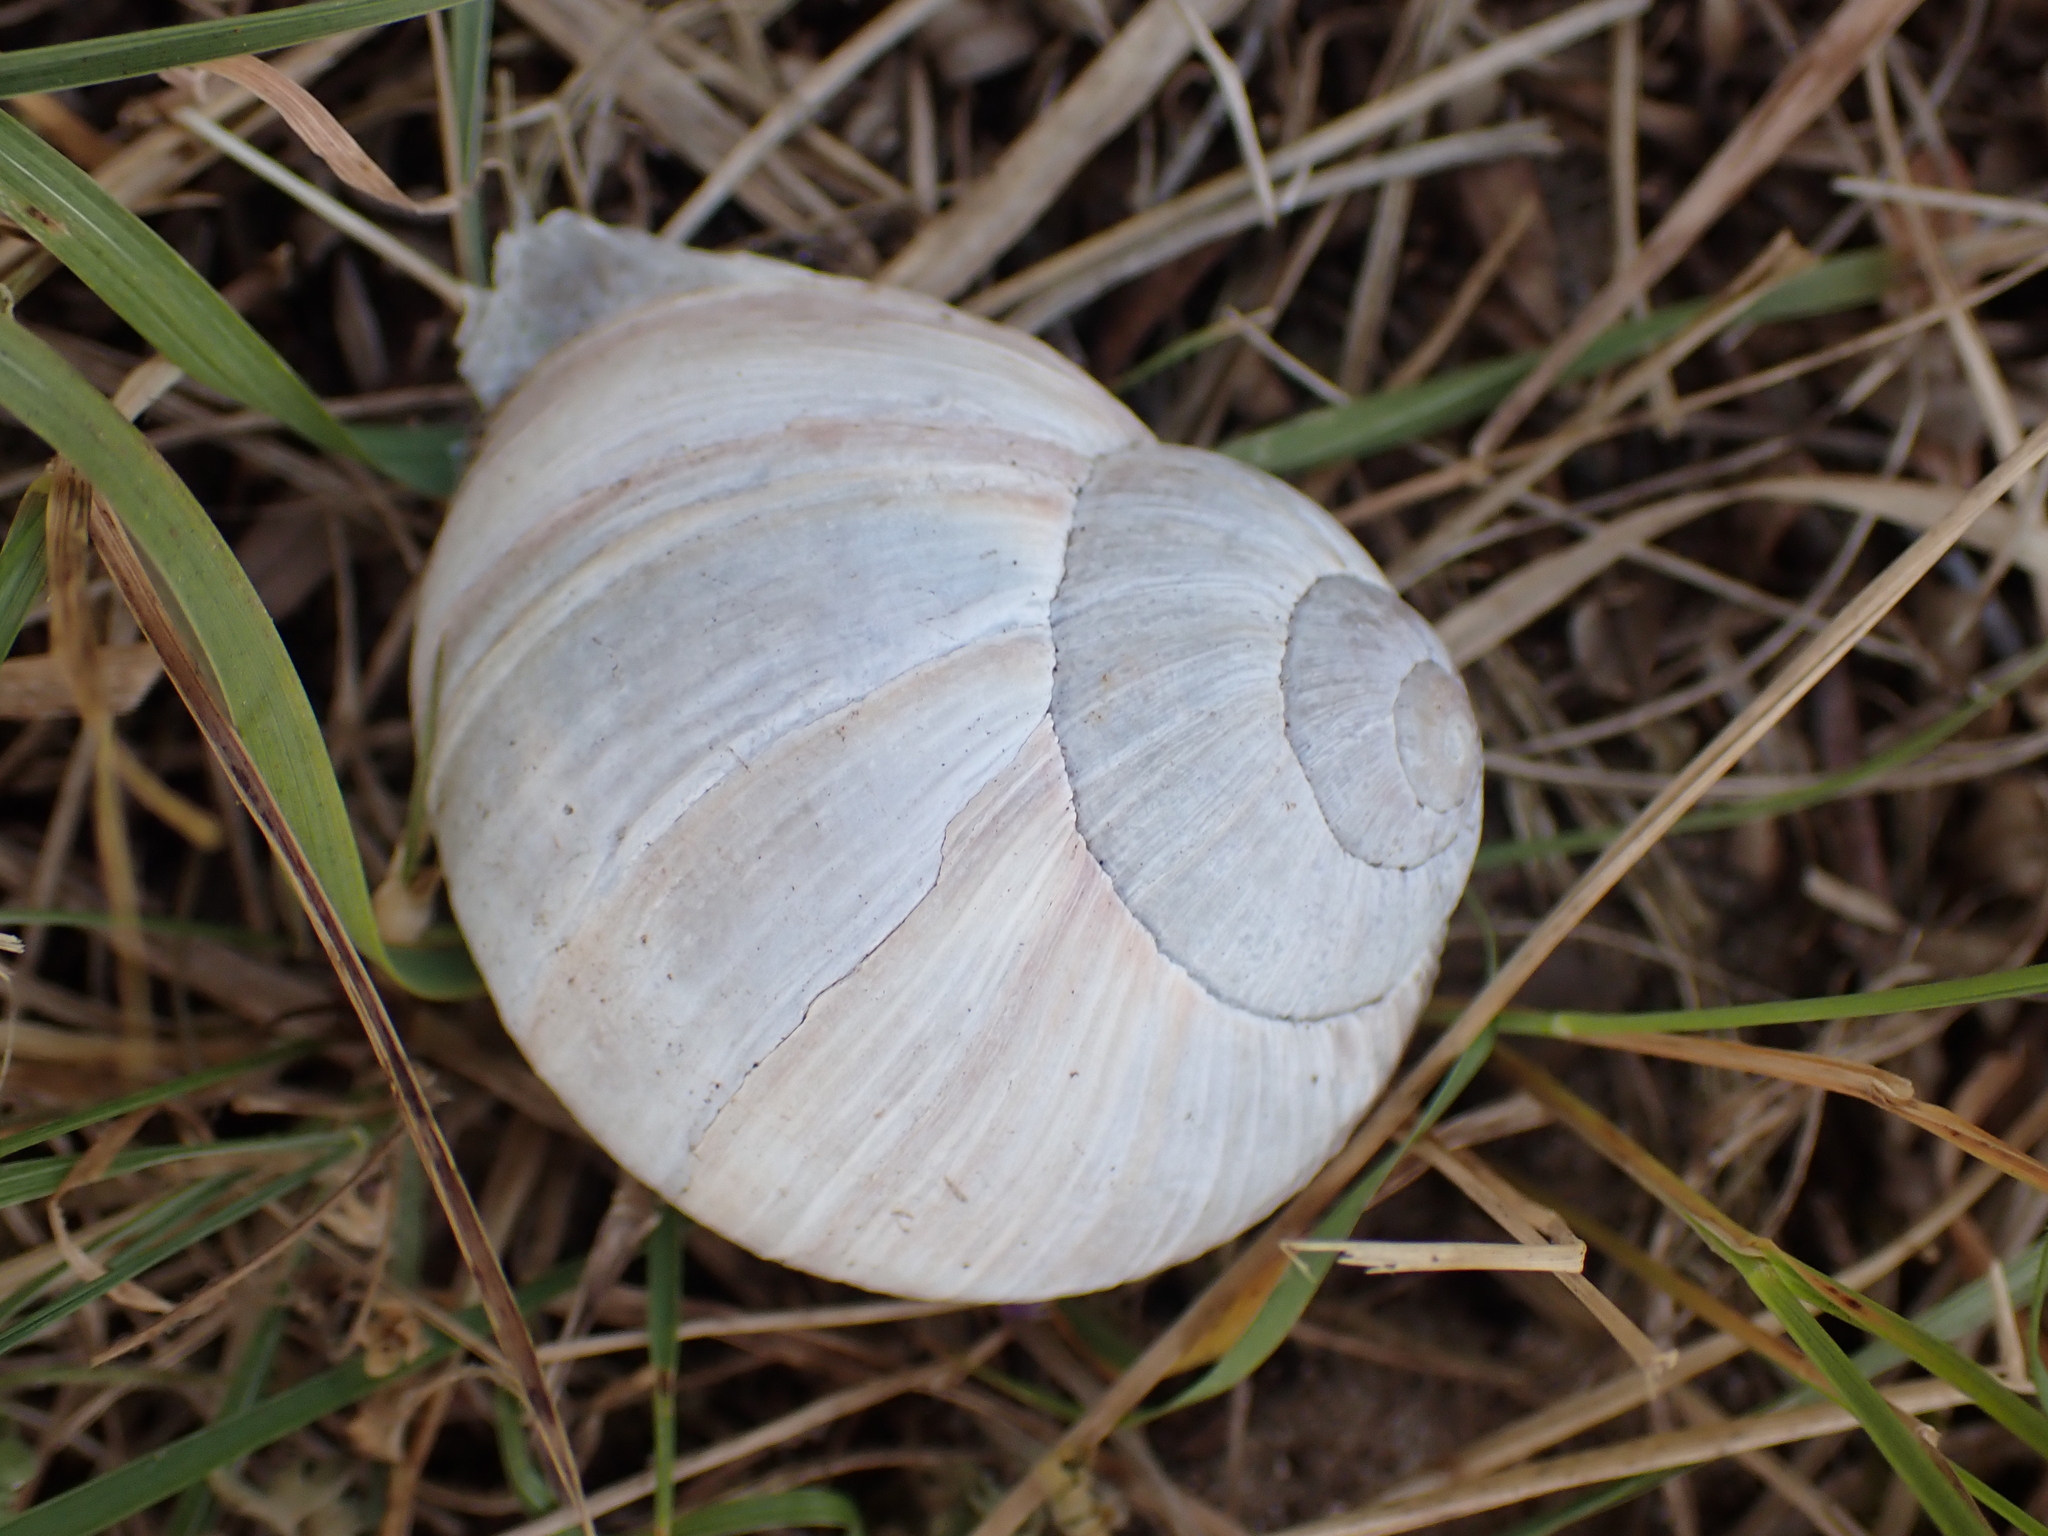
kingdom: Animalia
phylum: Mollusca
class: Gastropoda
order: Stylommatophora
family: Helicidae
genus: Helix
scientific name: Helix pomatia
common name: Roman snail
